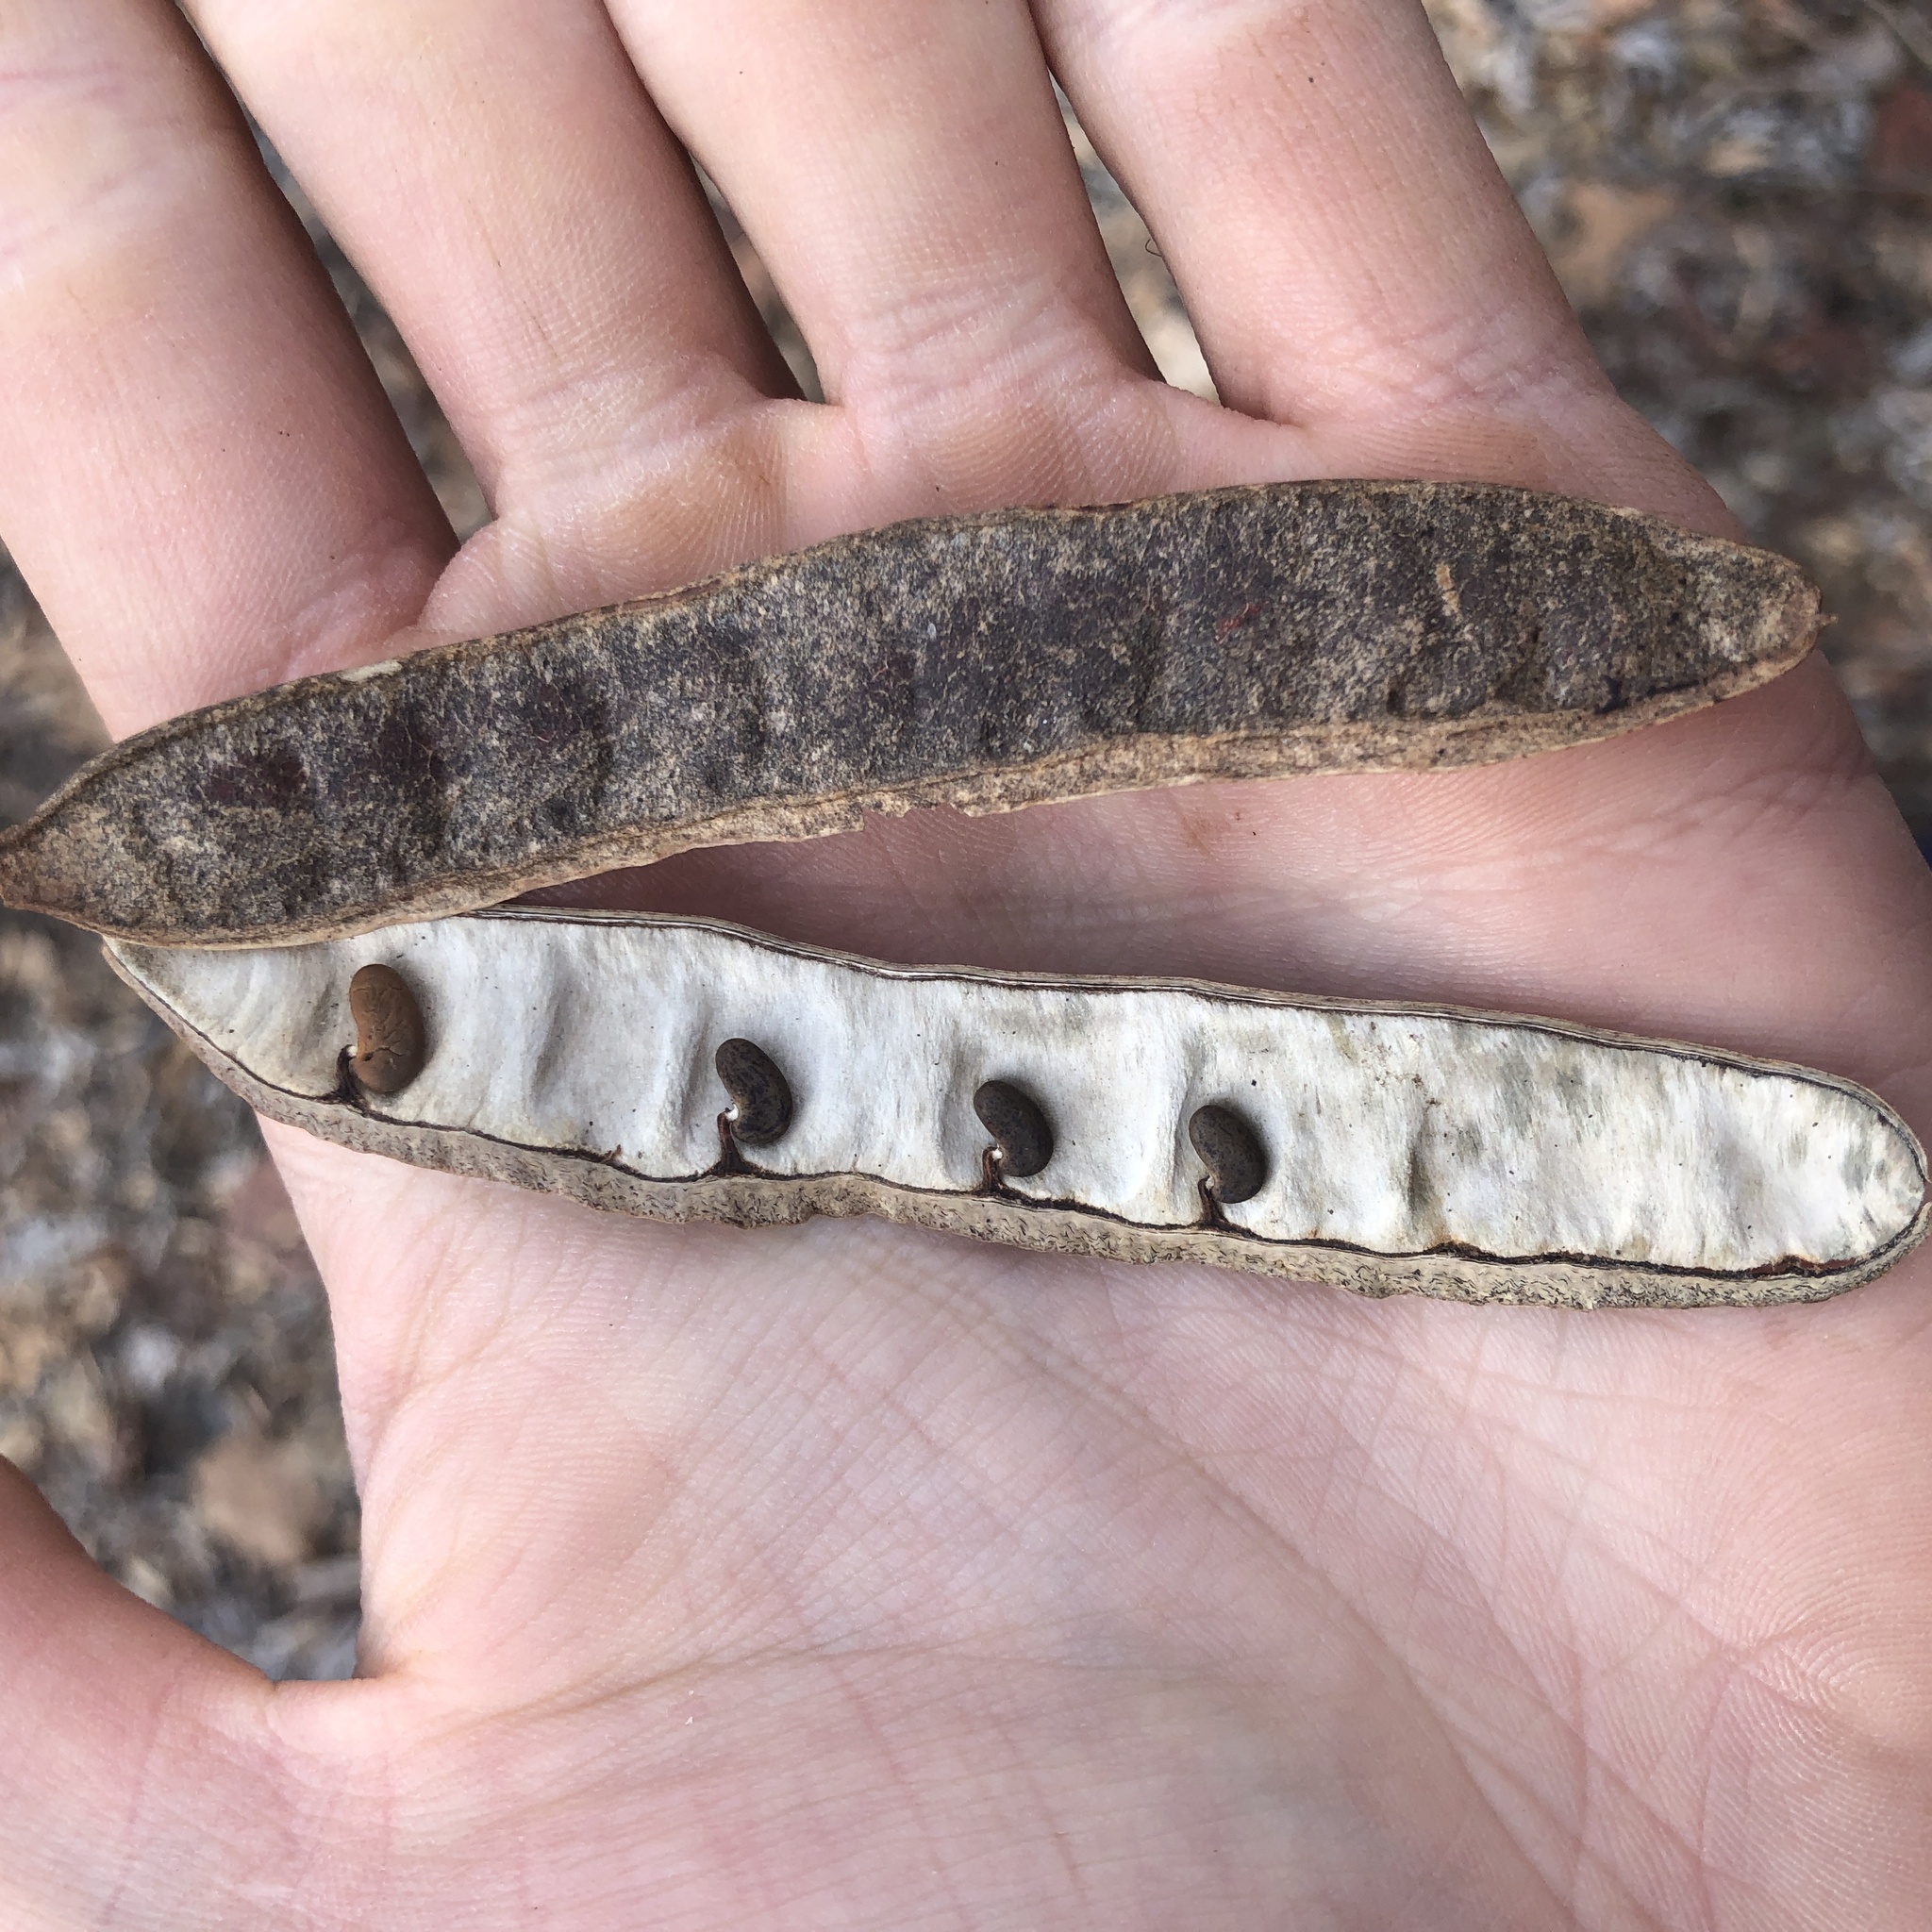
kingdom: Plantae
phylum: Tracheophyta
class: Magnoliopsida
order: Fabales
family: Fabaceae
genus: Robinia
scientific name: Robinia pseudoacacia
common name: Black locust
